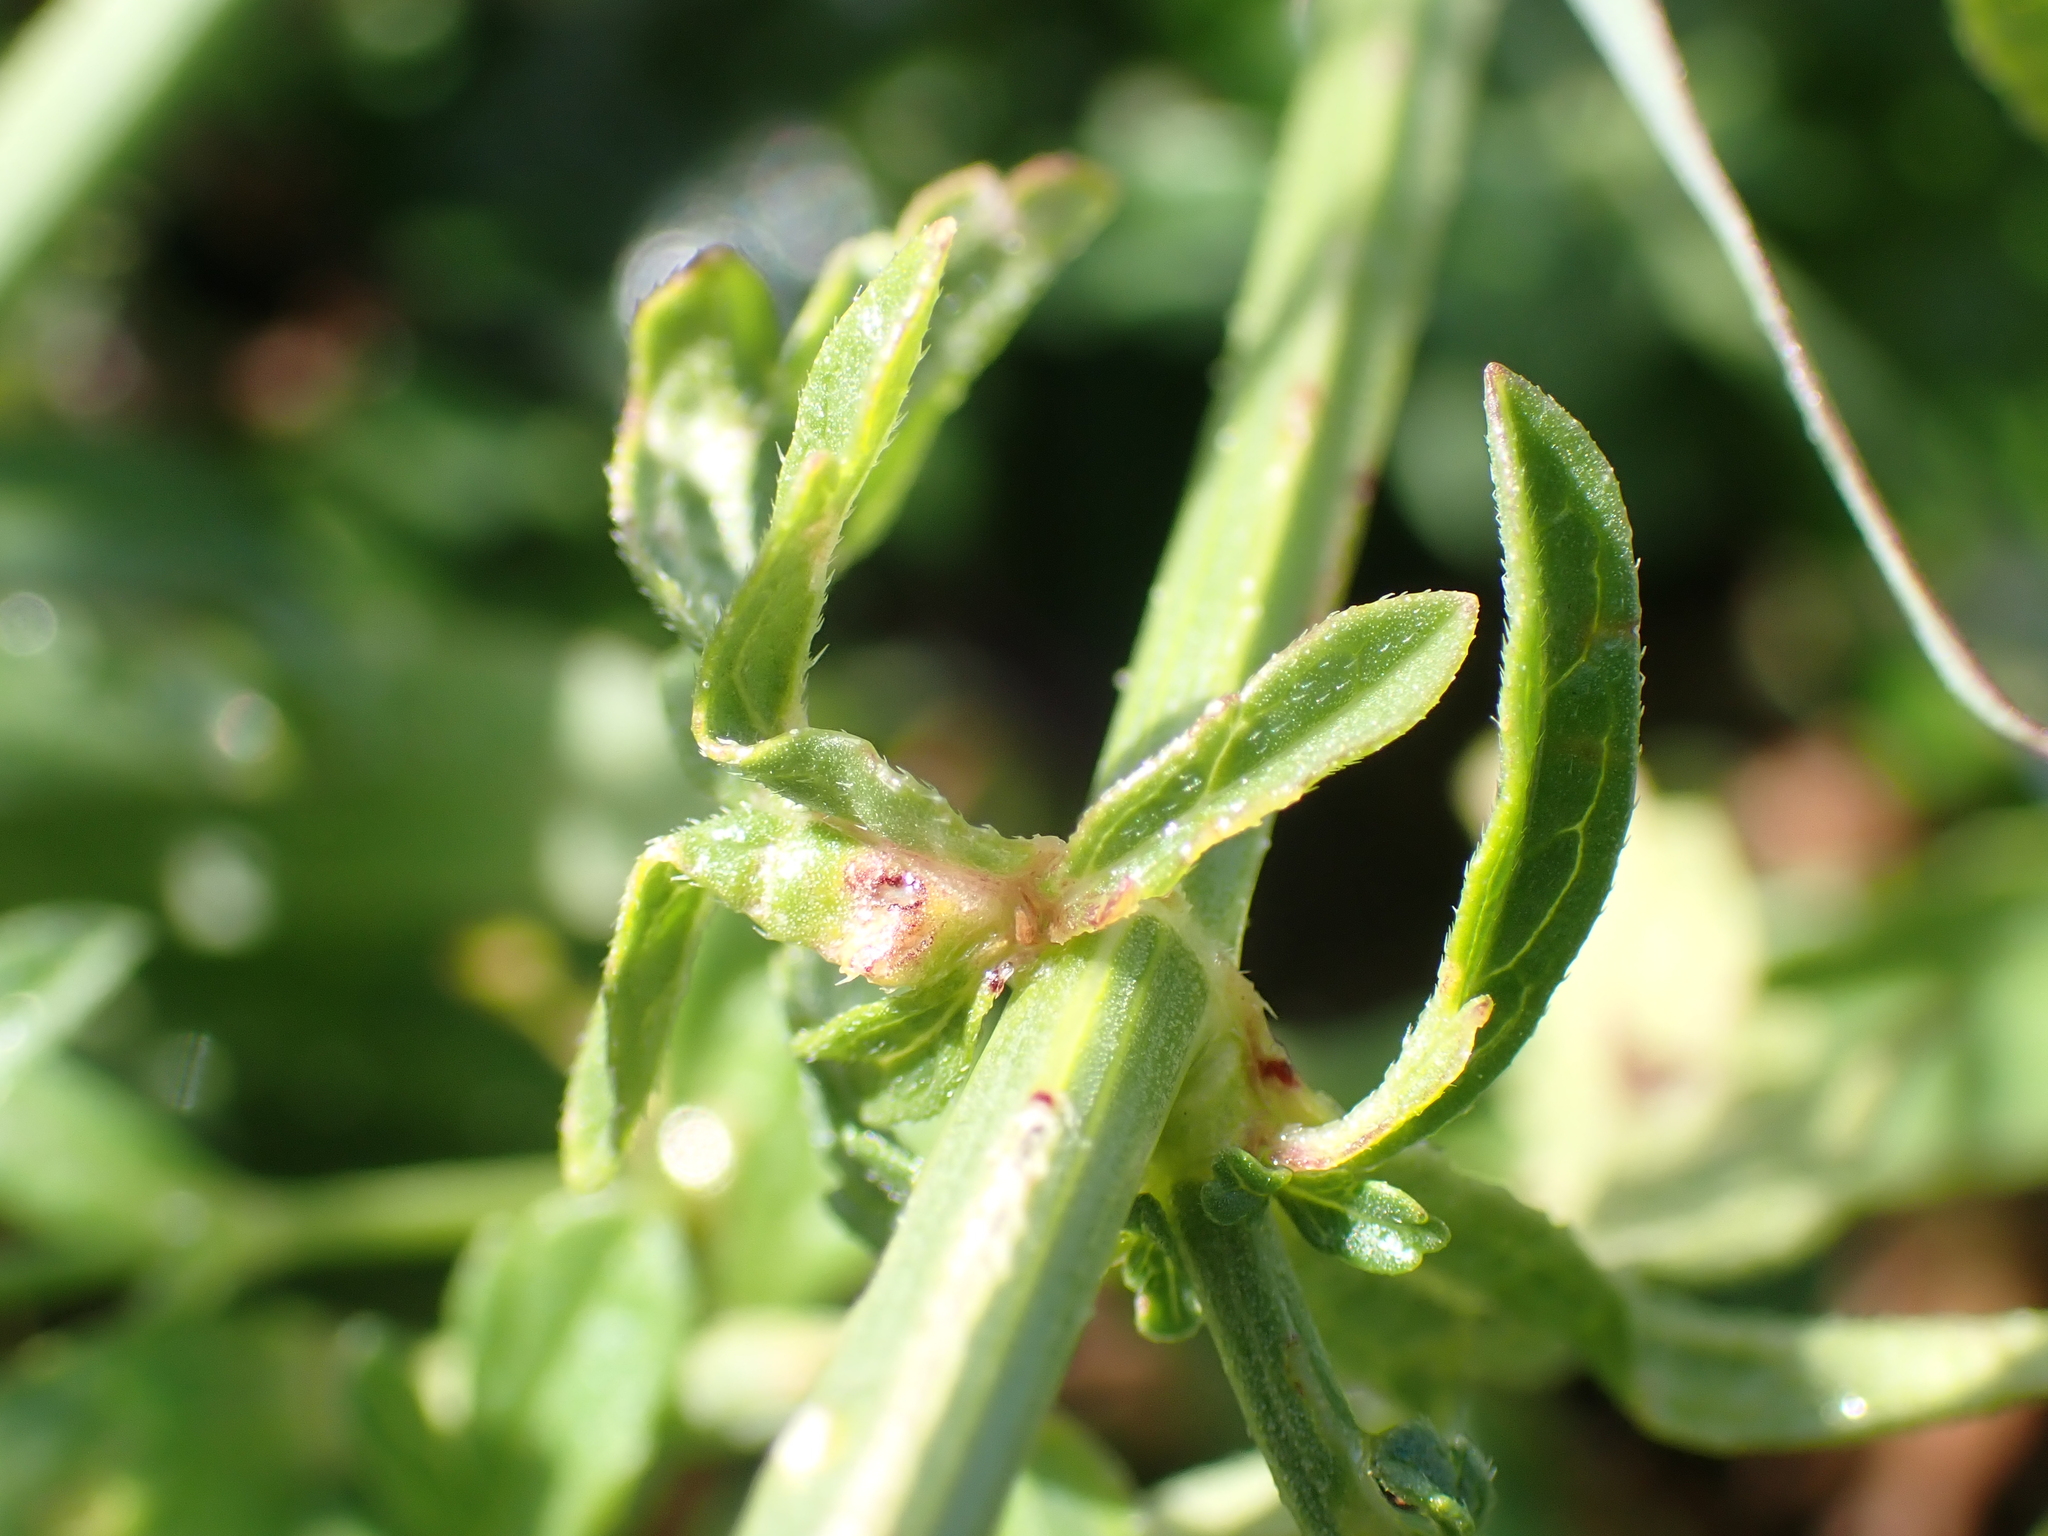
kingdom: Plantae
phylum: Tracheophyta
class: Magnoliopsida
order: Lamiales
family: Verbenaceae
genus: Verbena
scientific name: Verbena officinalis
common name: Vervain
